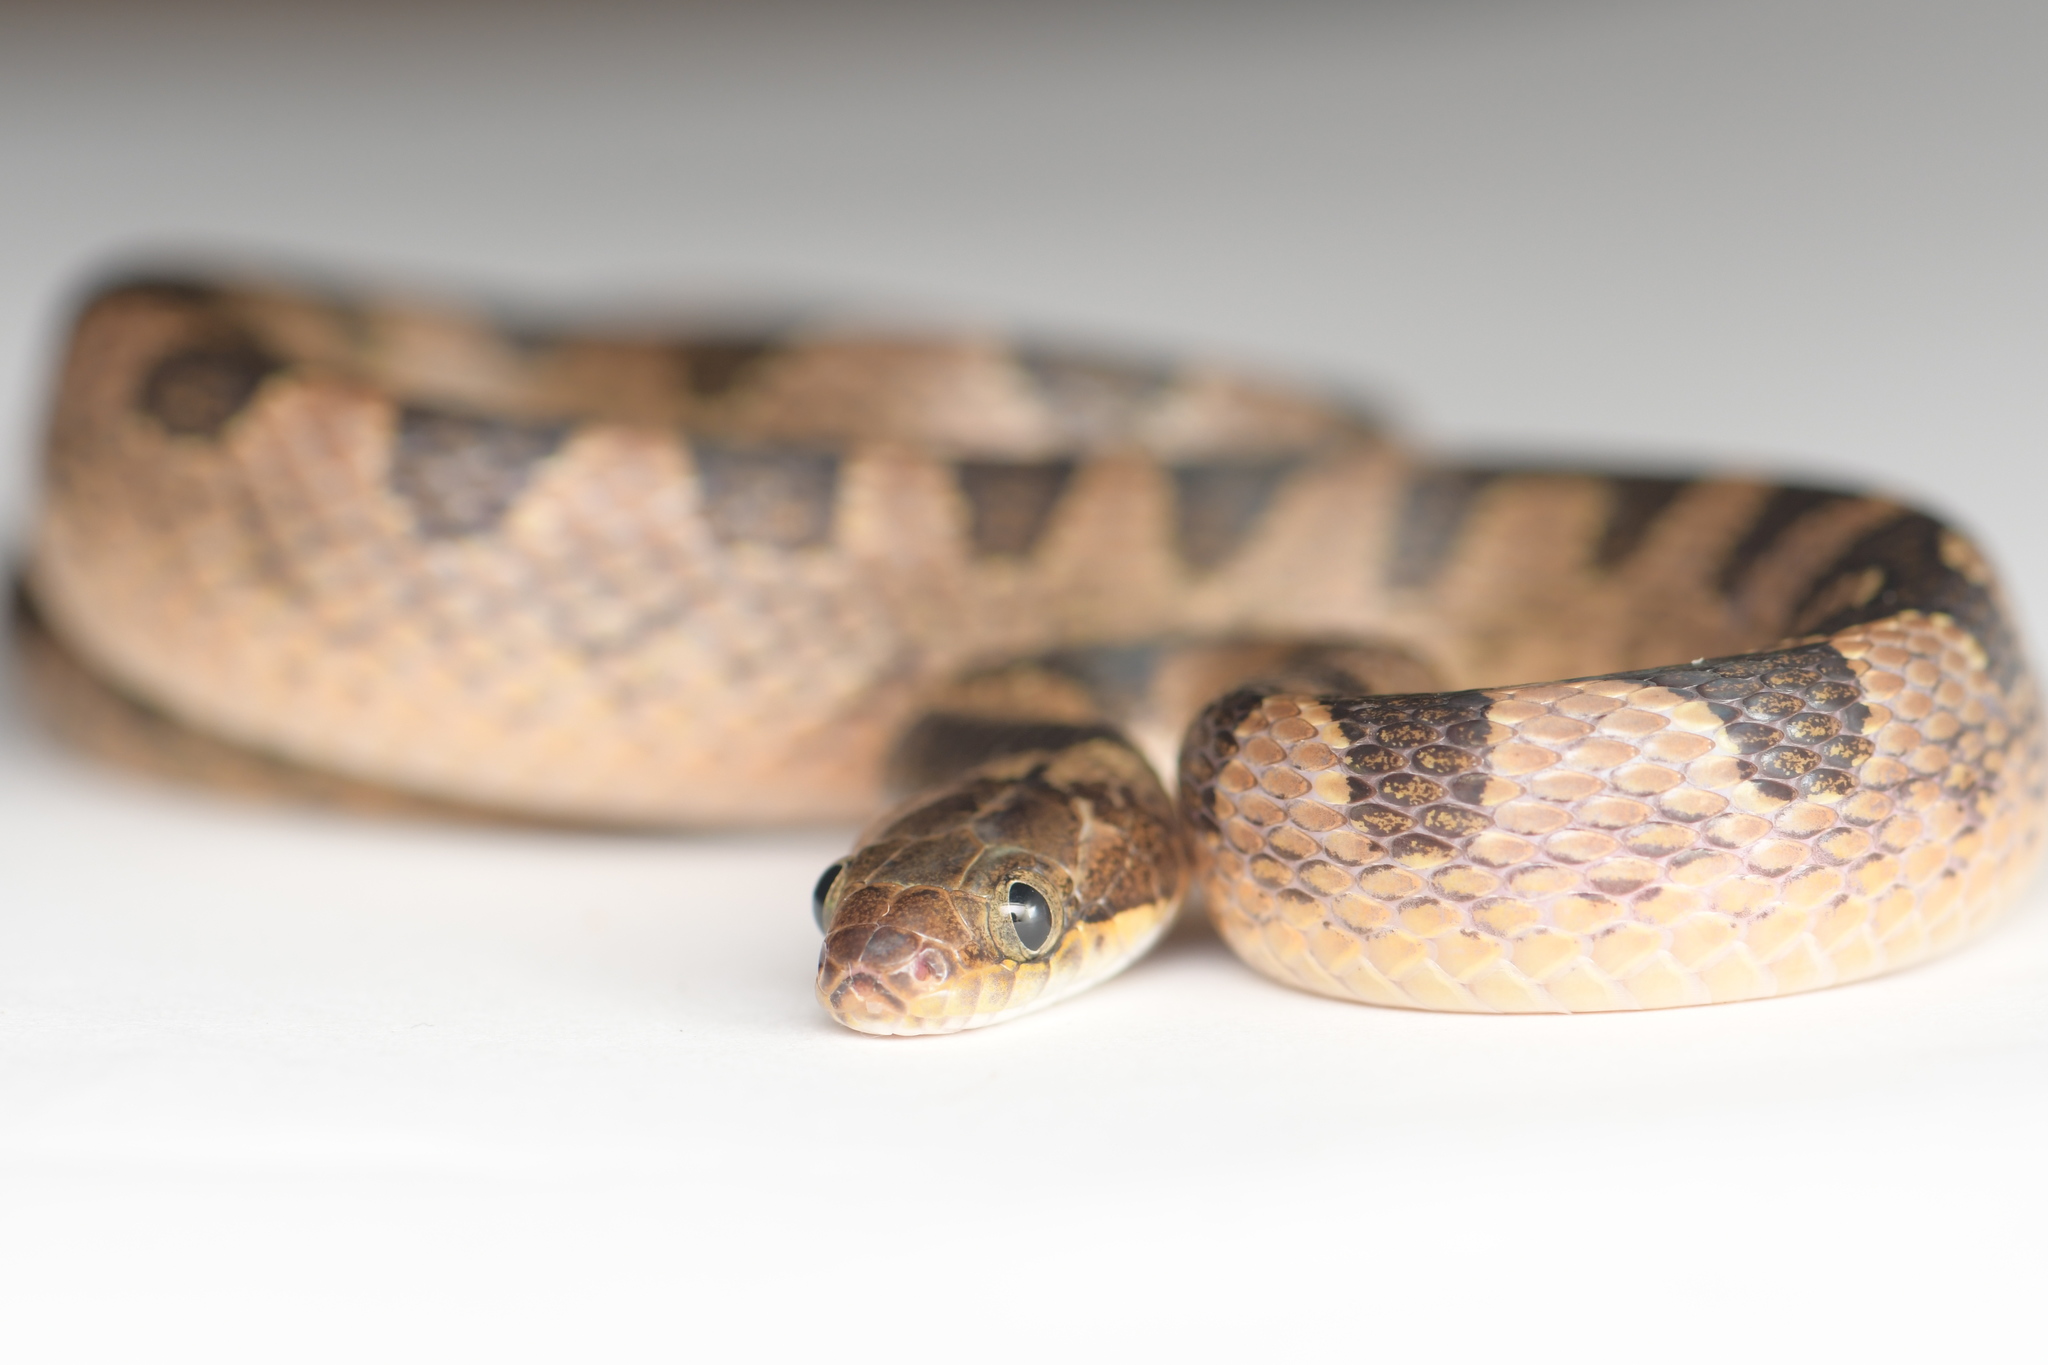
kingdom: Animalia
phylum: Chordata
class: Squamata
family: Colubridae
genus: Leptodeira
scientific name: Leptodeira maculata
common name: Southwestern cat-eyed snake
